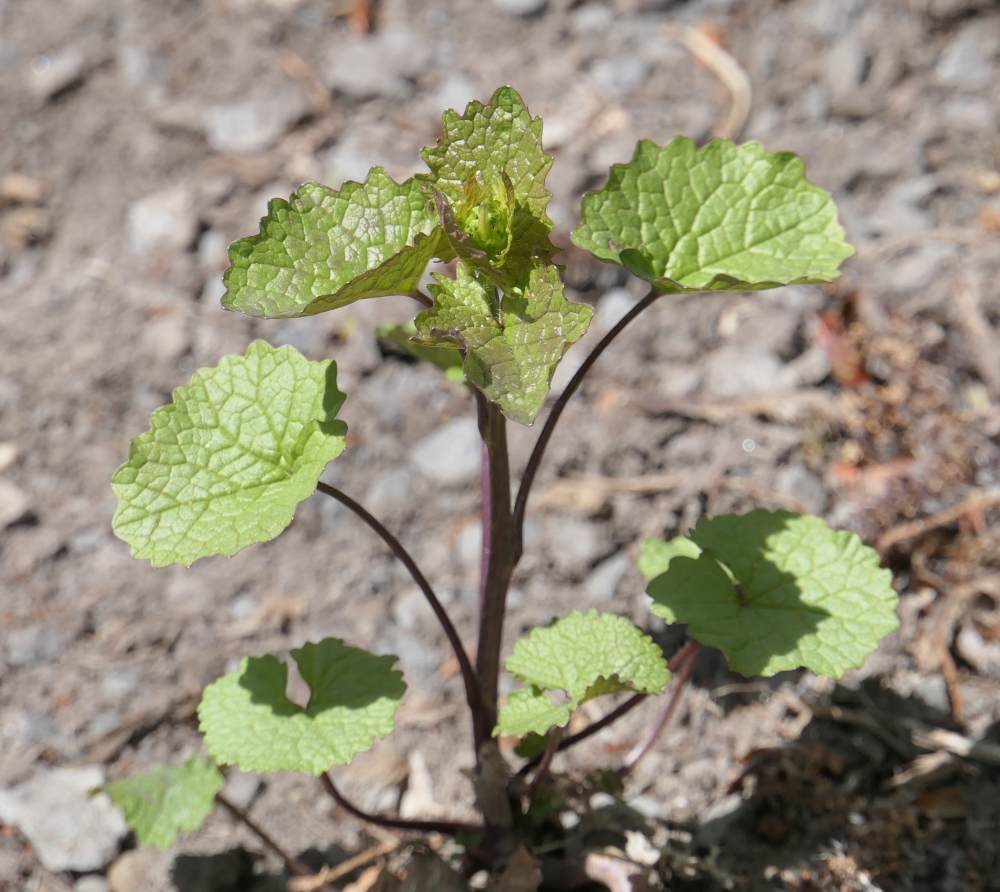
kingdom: Plantae
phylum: Tracheophyta
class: Magnoliopsida
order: Brassicales
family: Brassicaceae
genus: Alliaria
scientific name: Alliaria petiolata
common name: Garlic mustard
